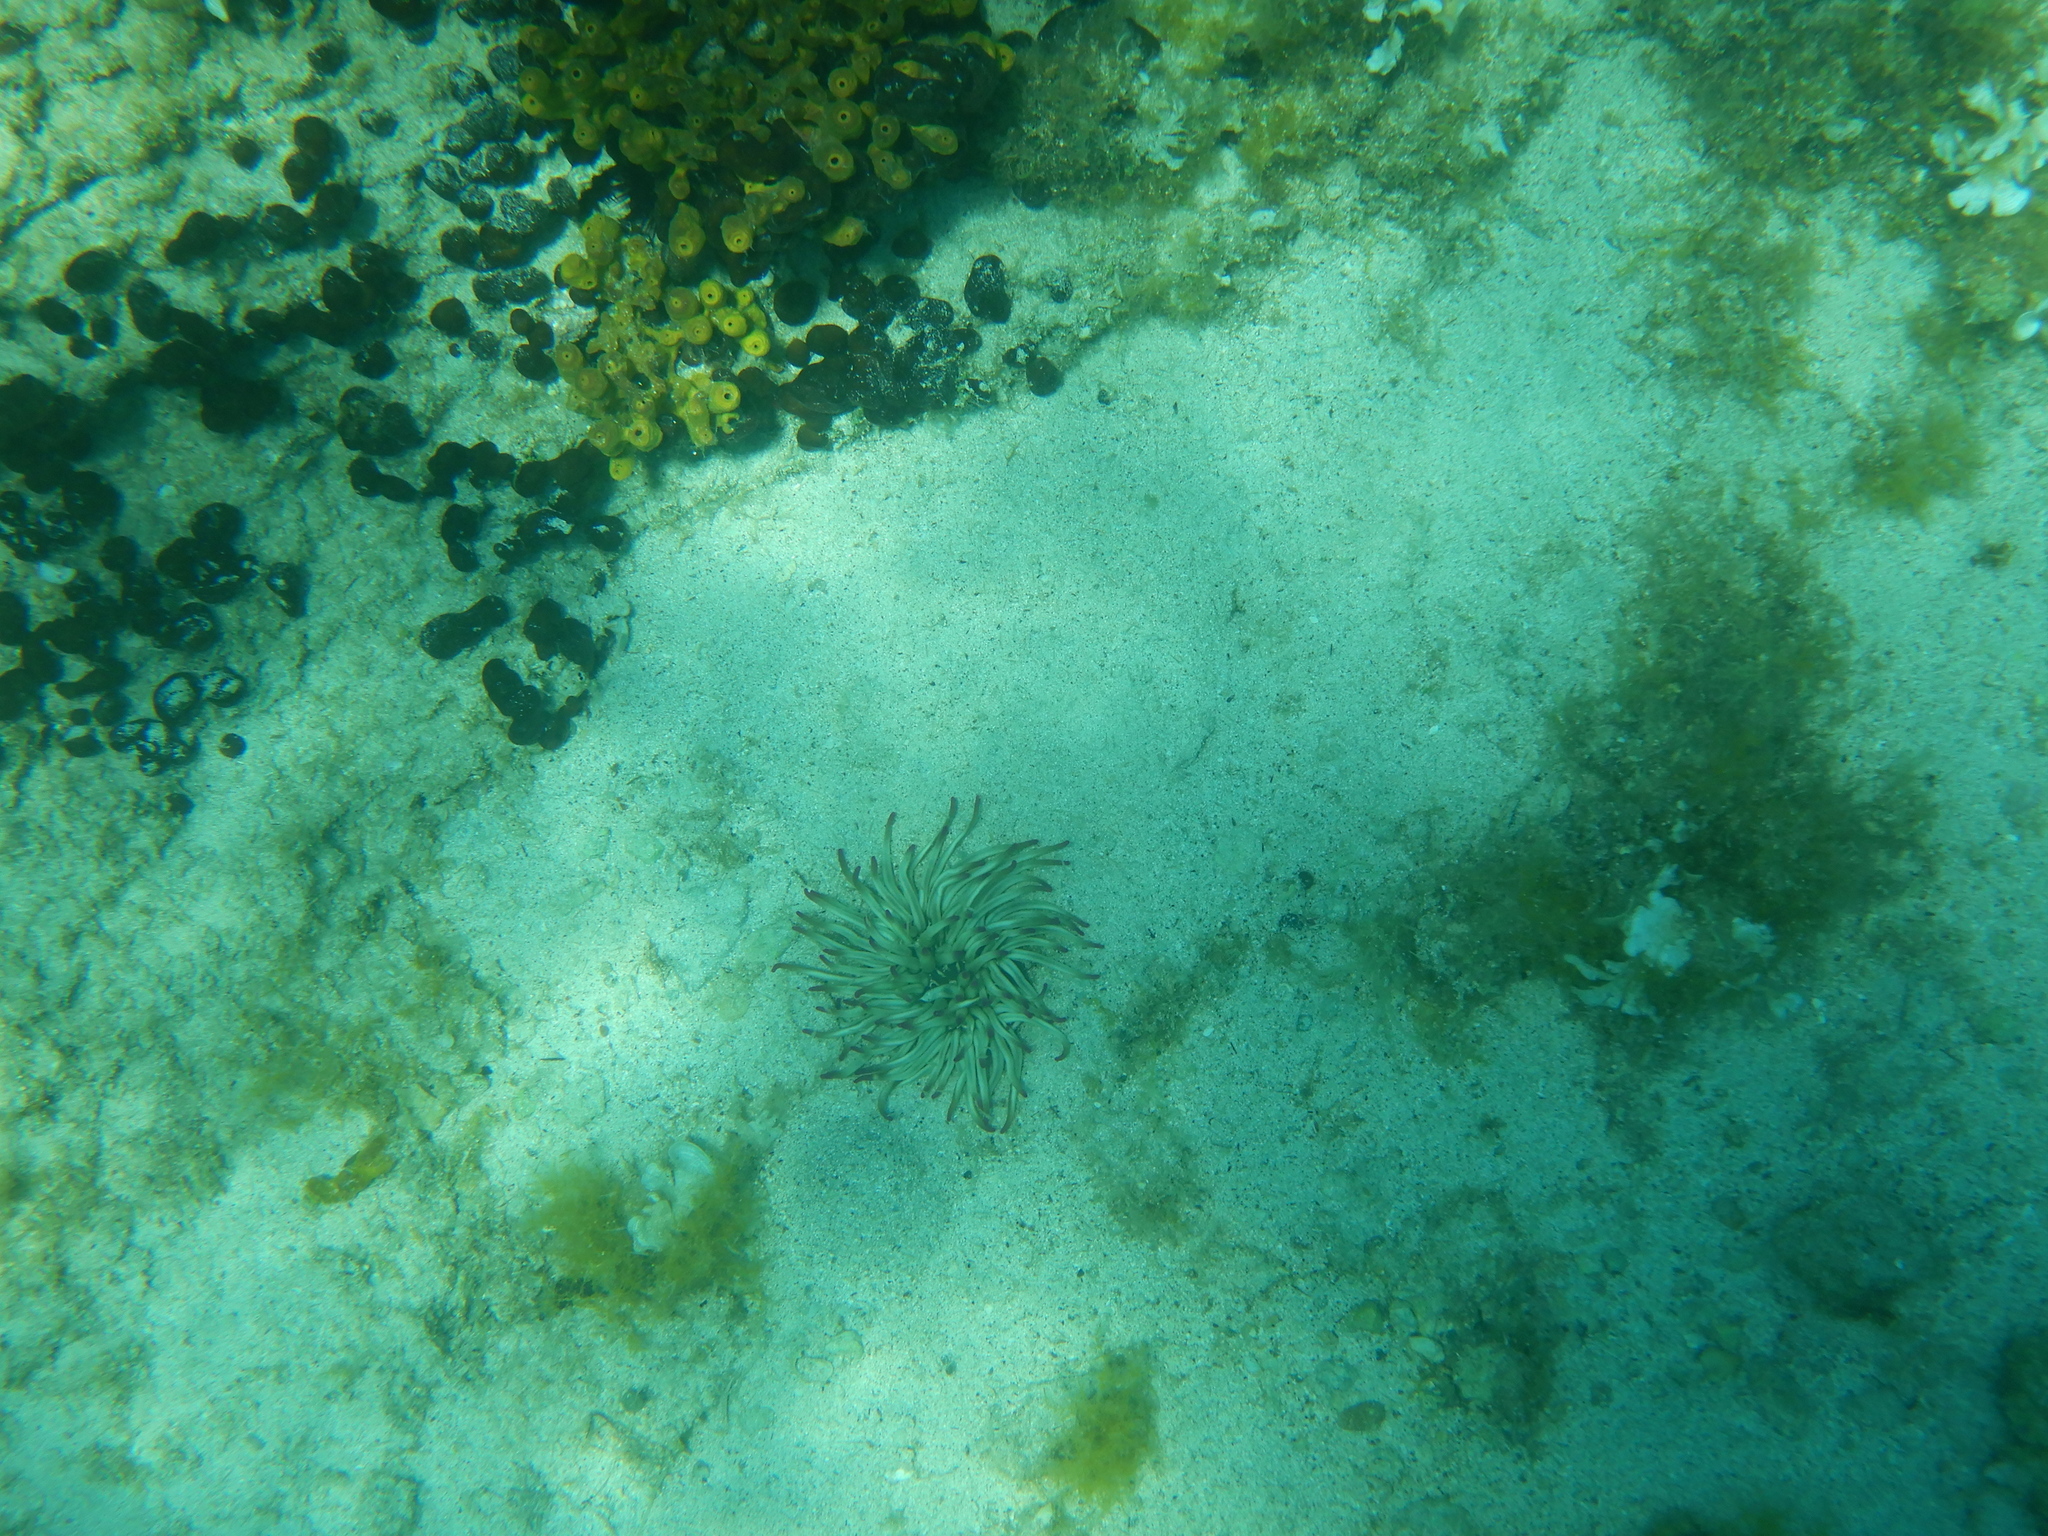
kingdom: Animalia
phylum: Cnidaria
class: Anthozoa
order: Actiniaria
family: Actiniidae
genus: Condylactis
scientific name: Condylactis aurantiaca
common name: Golden anemone
